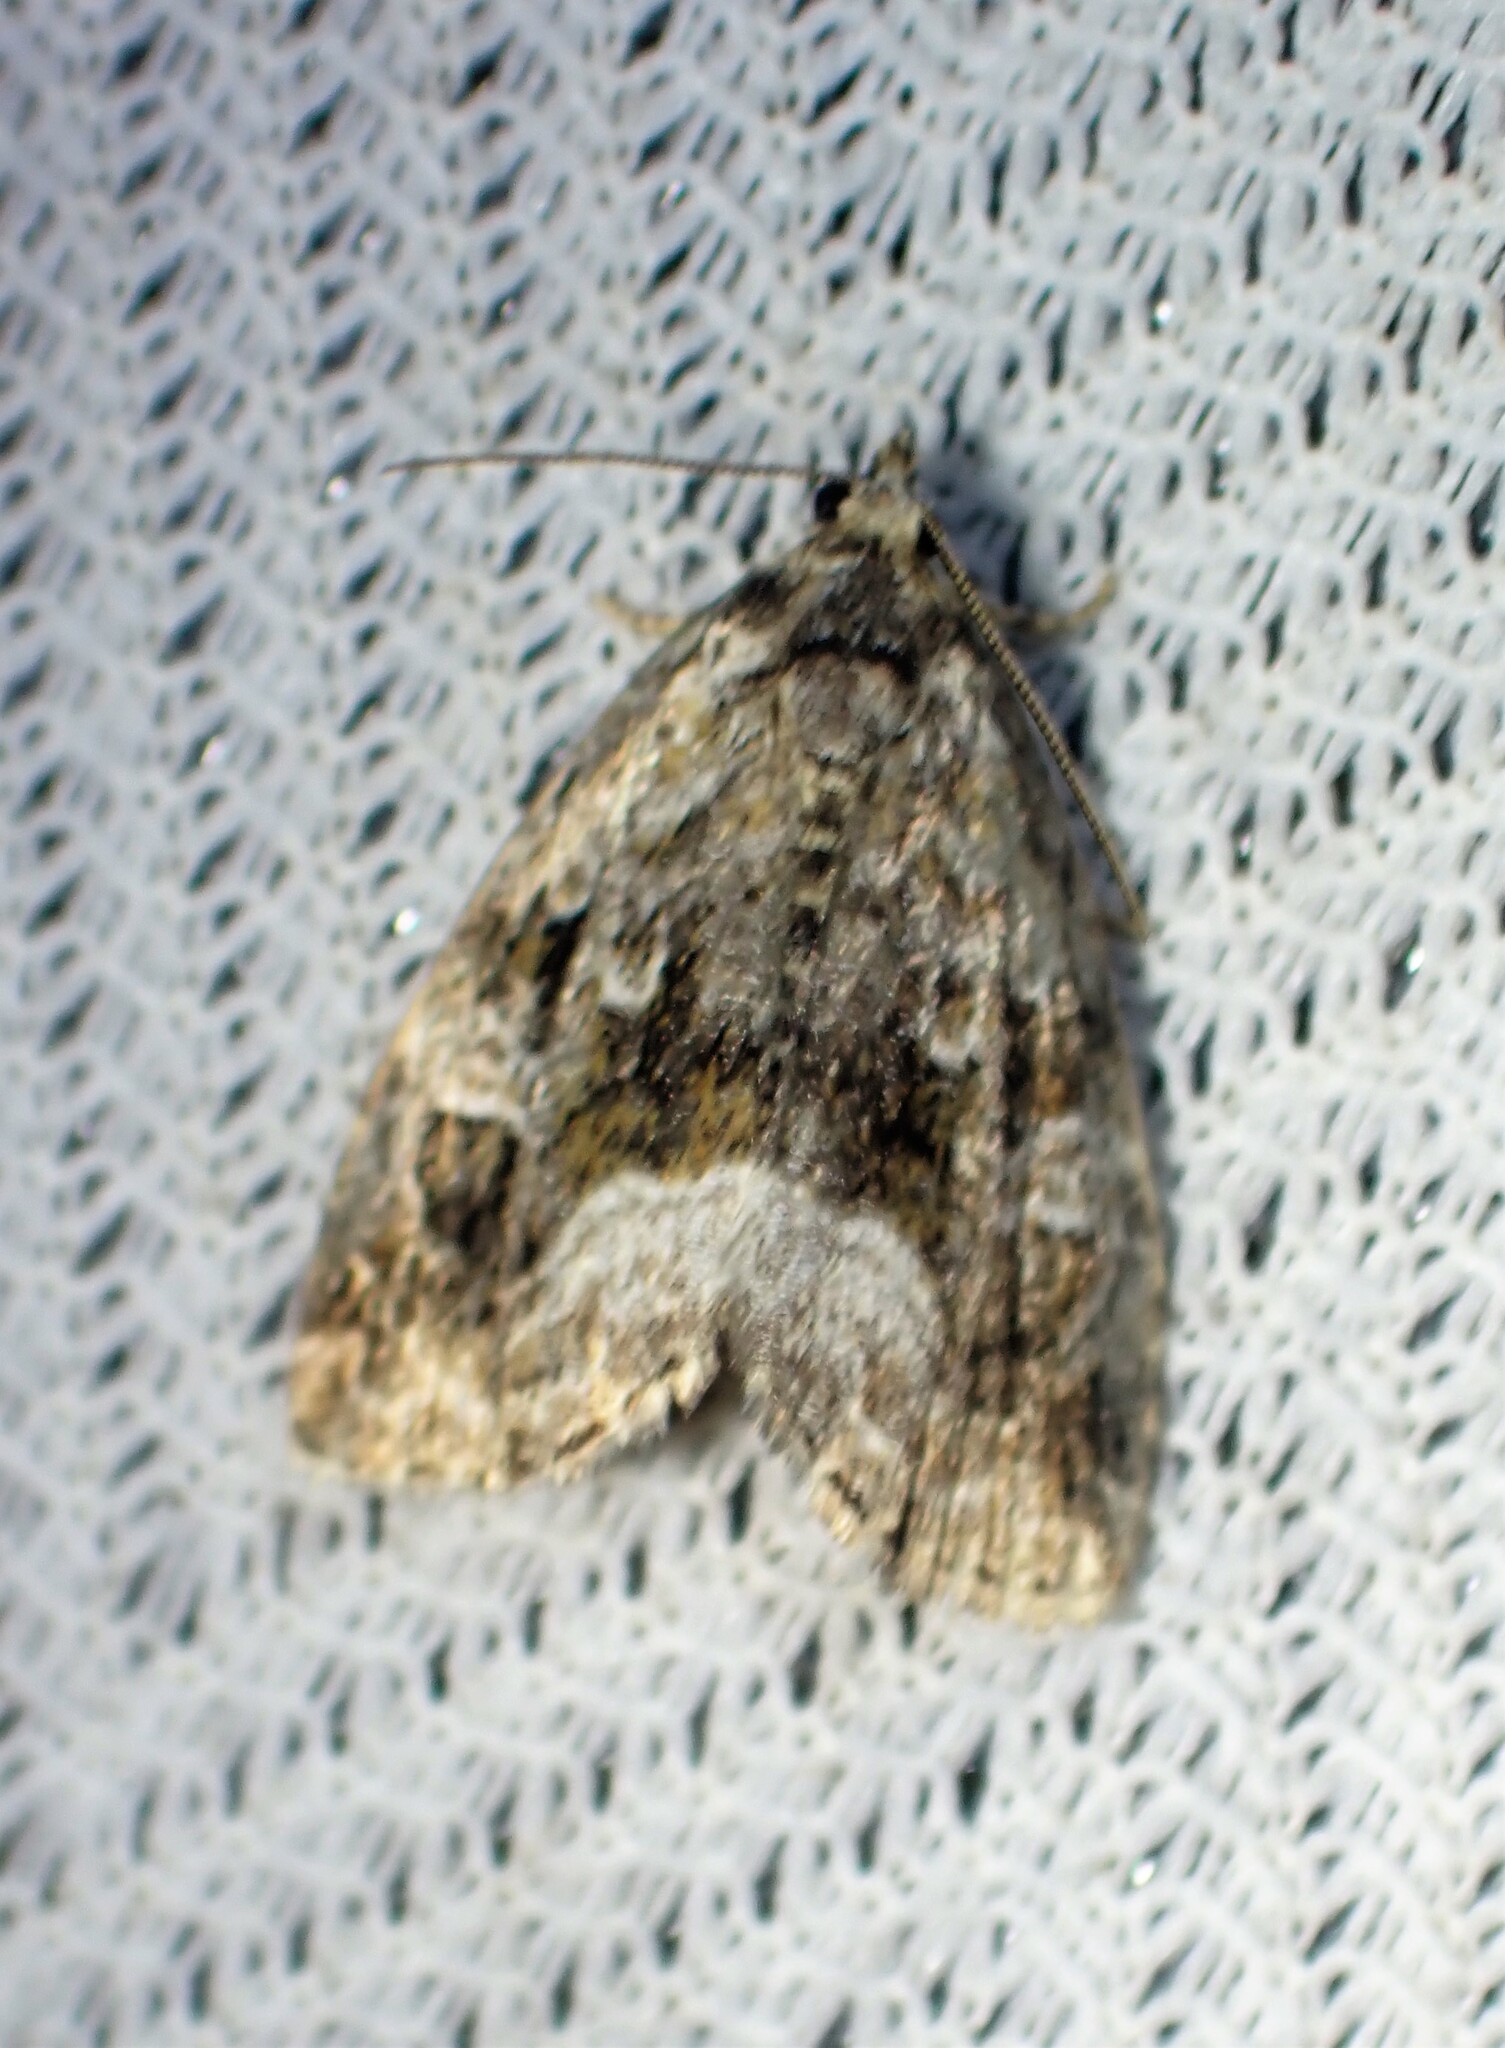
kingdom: Animalia
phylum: Arthropoda
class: Insecta
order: Lepidoptera
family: Noctuidae
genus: Protodeltote
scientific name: Protodeltote muscosula
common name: Large mossy glyph
